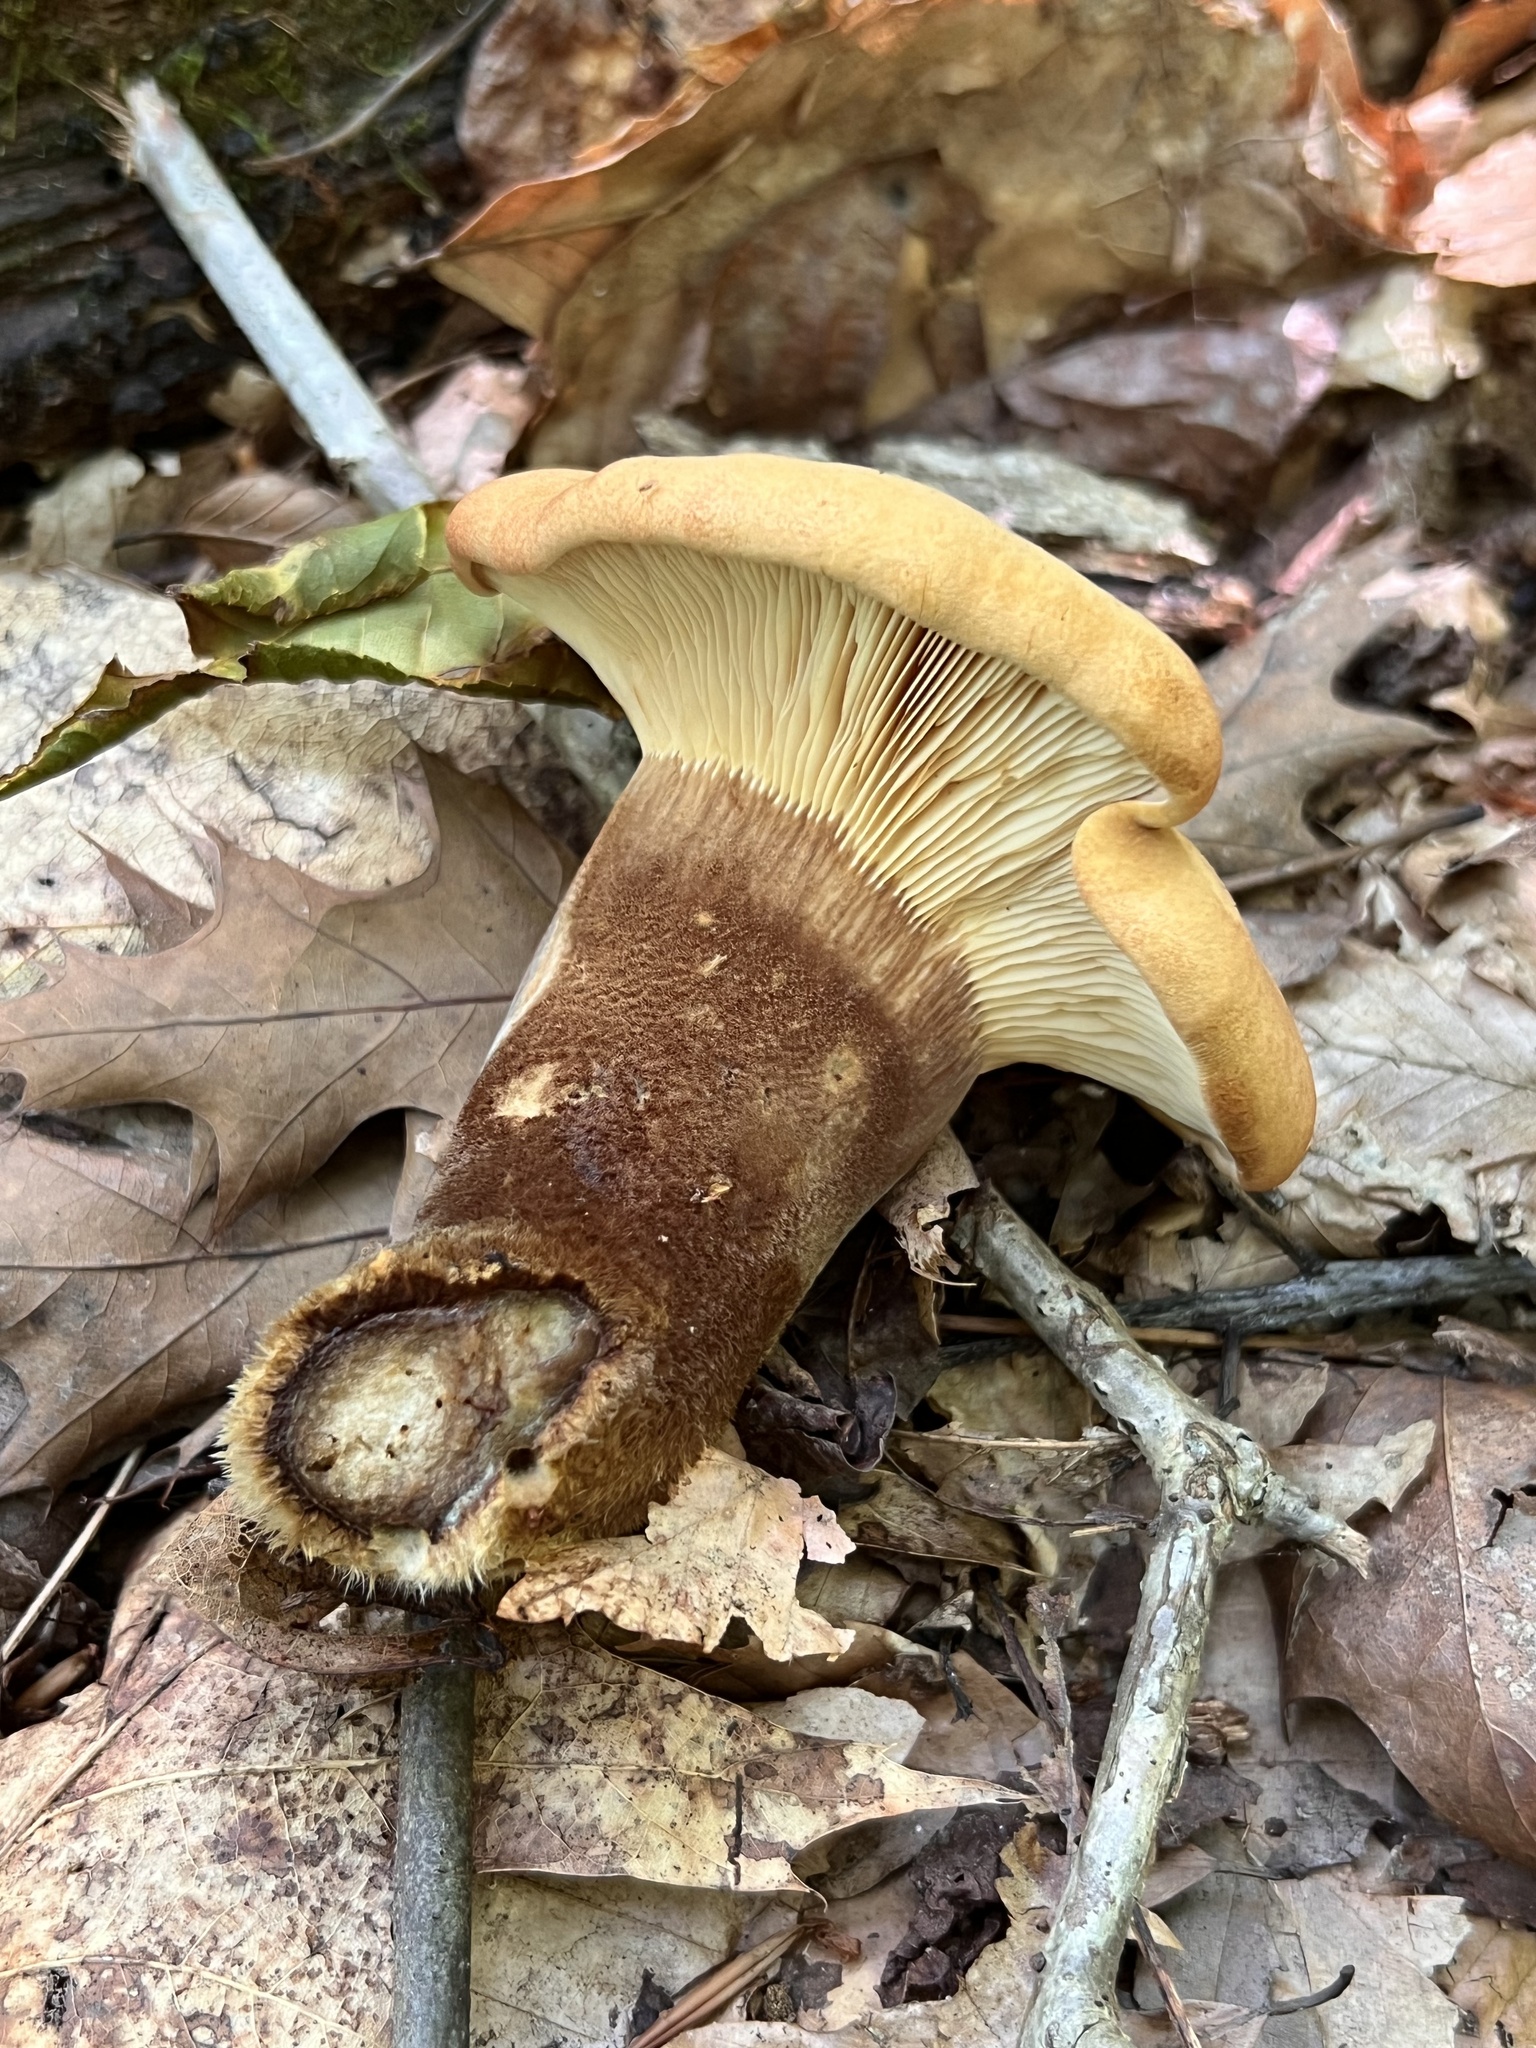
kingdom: Fungi
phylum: Basidiomycota
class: Agaricomycetes
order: Boletales
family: Tapinellaceae
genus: Tapinella
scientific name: Tapinella atrotomentosa
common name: Velvet rollrim
